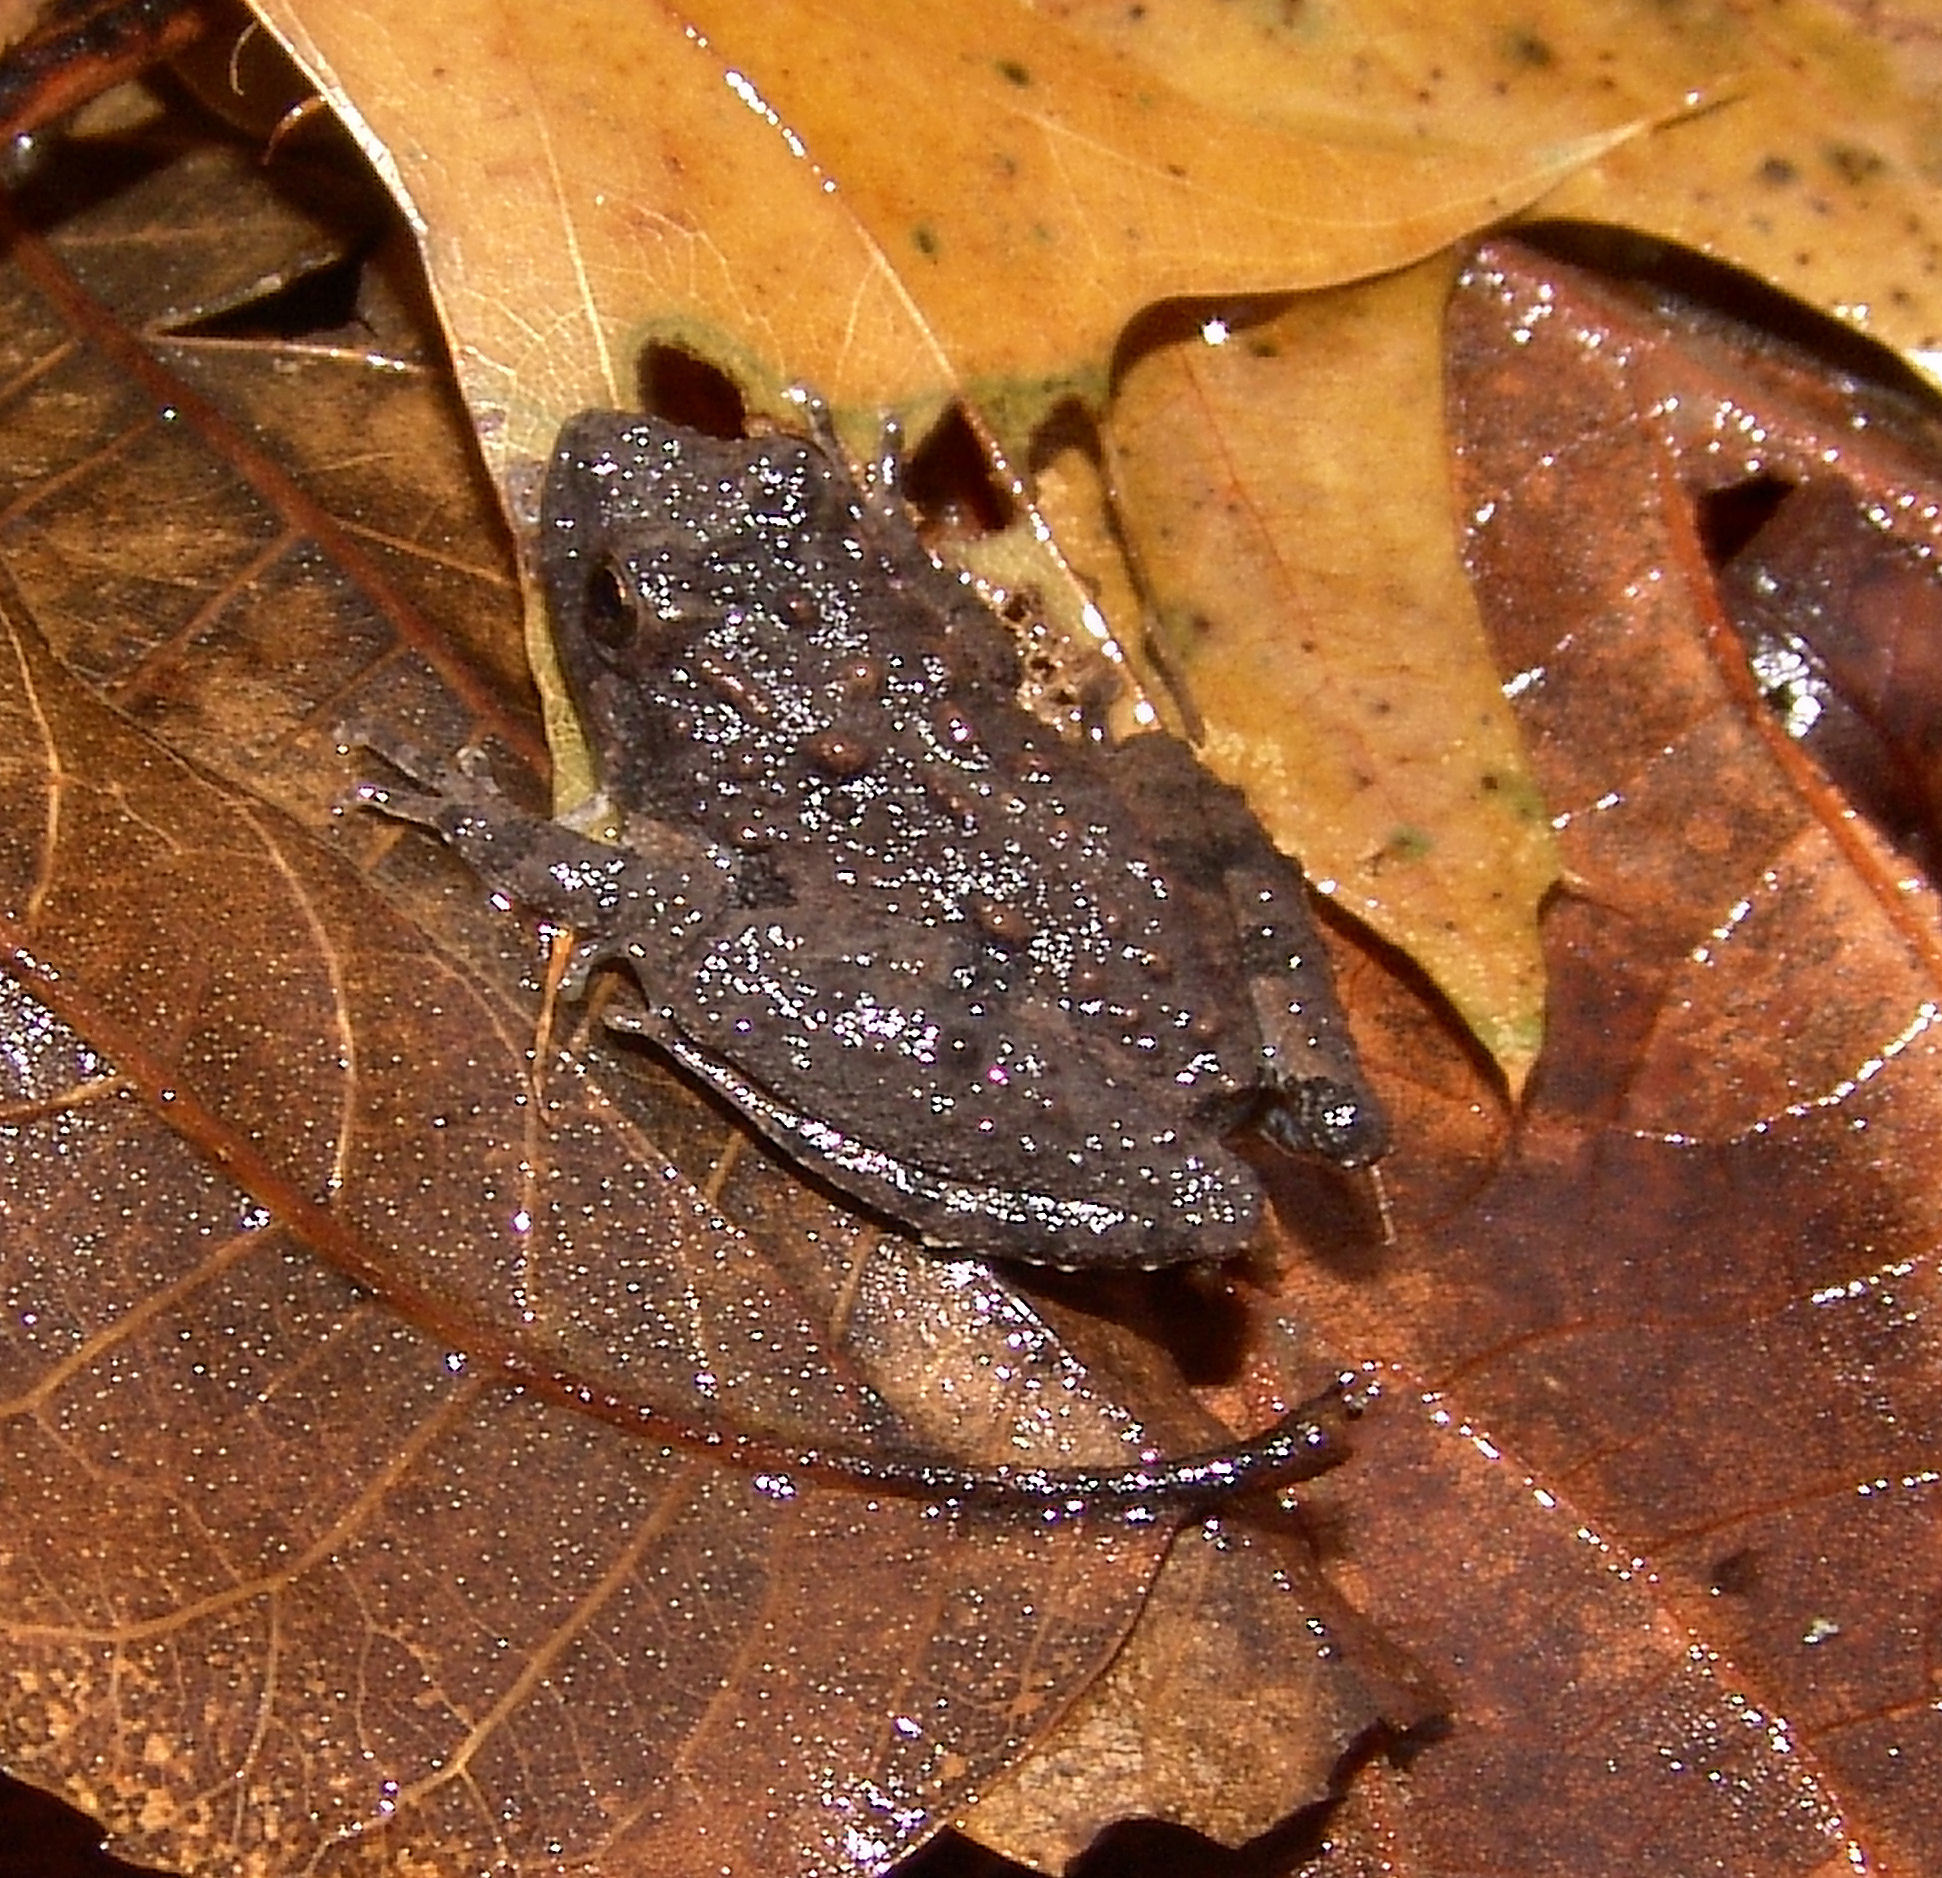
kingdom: Animalia
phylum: Chordata
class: Amphibia
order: Anura
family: Hylidae
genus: Acris
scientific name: Acris blanchardi
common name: Blanchard's cricket frog
